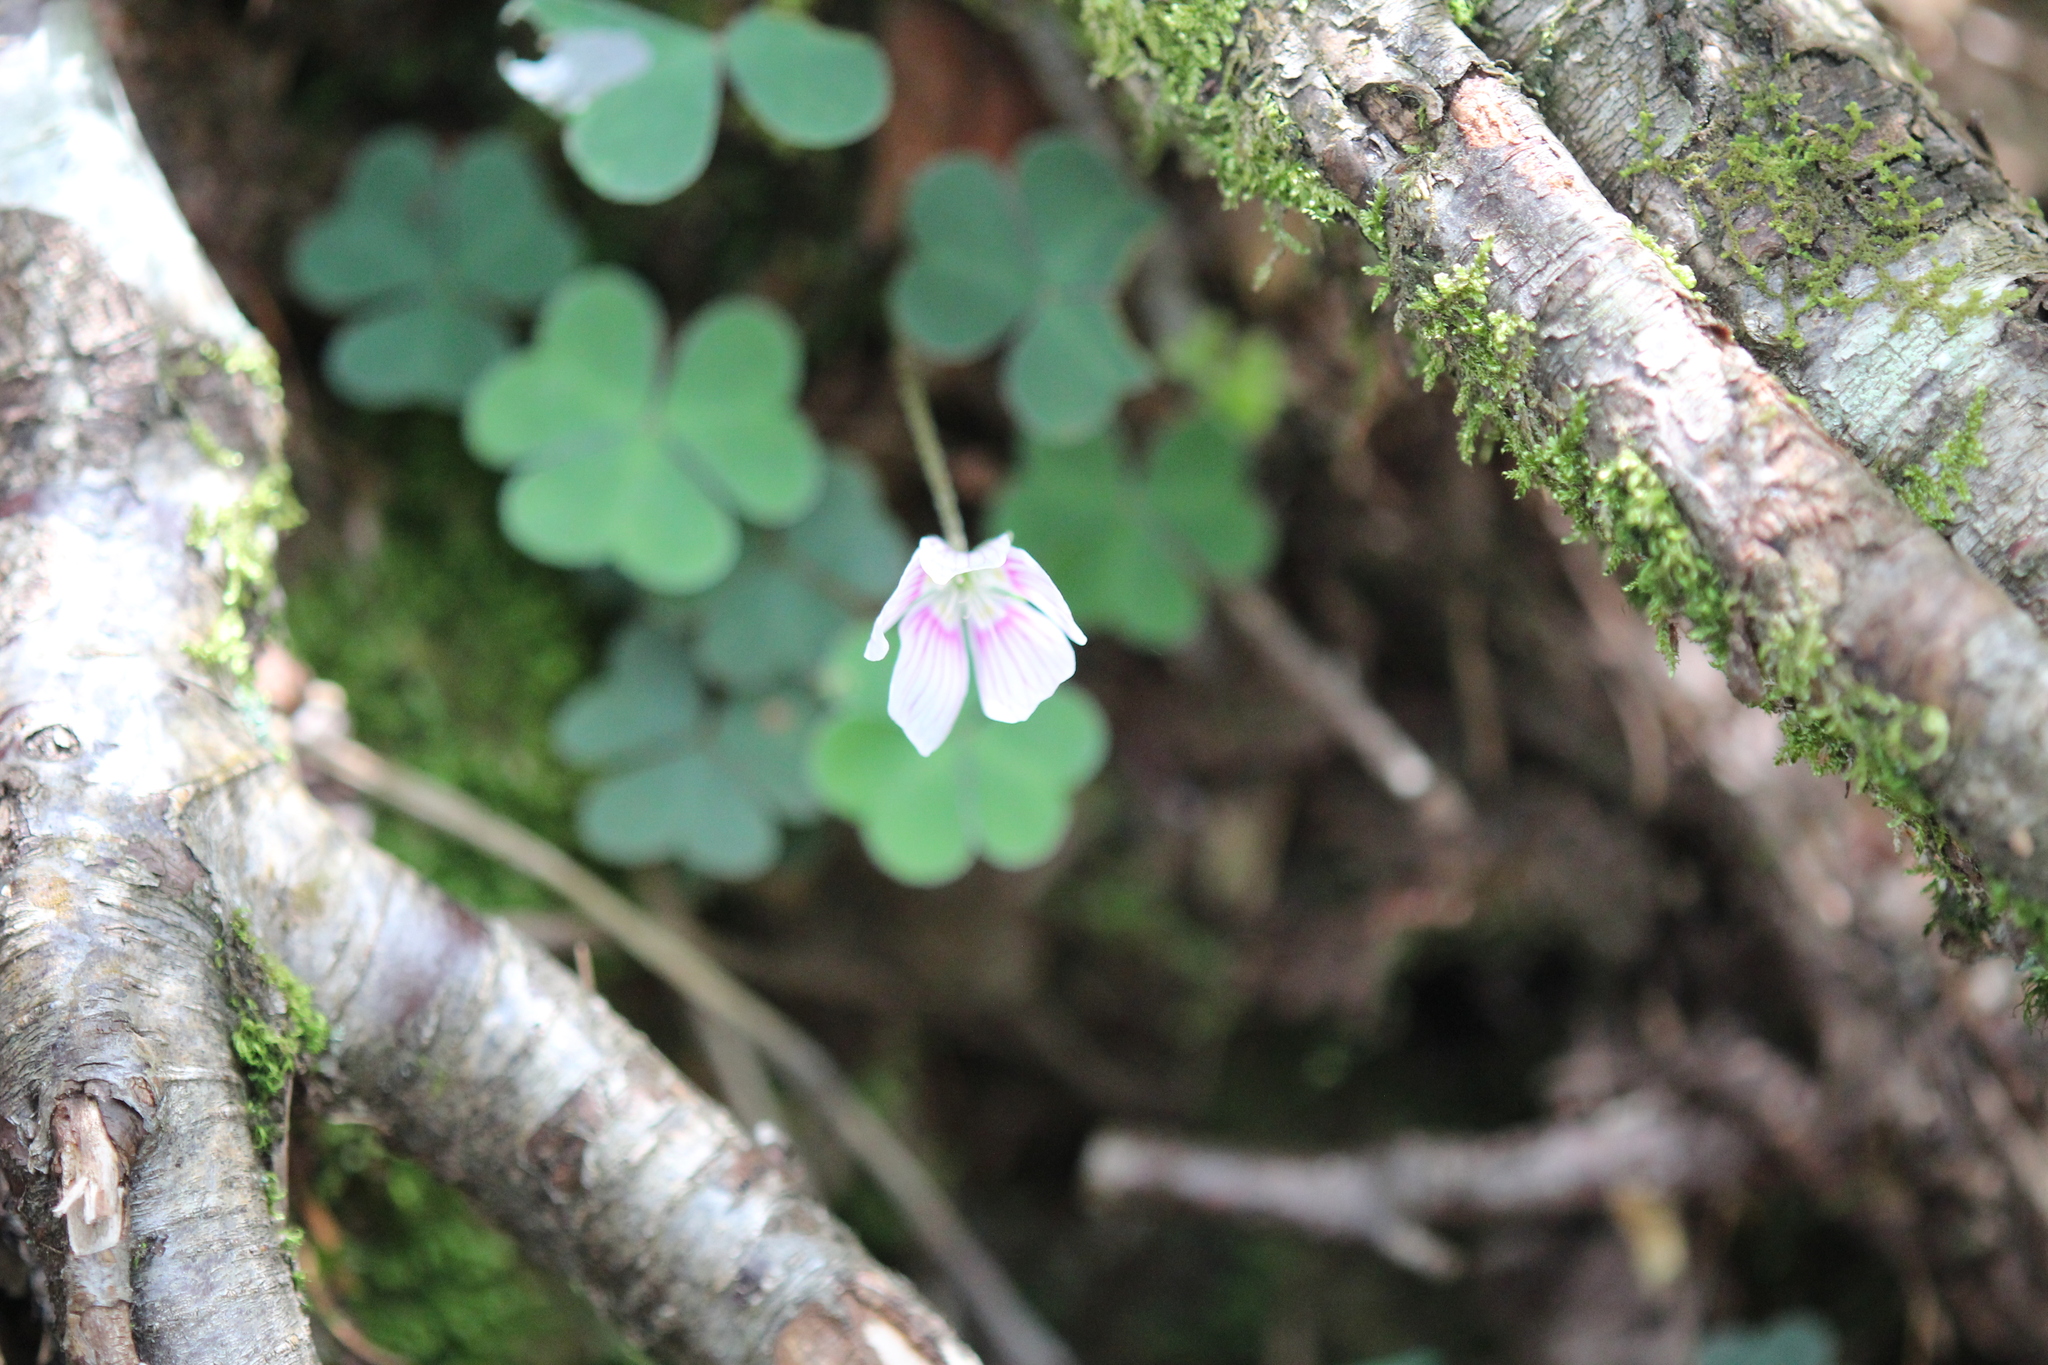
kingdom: Plantae
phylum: Tracheophyta
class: Magnoliopsida
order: Oxalidales
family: Oxalidaceae
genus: Oxalis
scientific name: Oxalis montana
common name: American wood-sorrel
